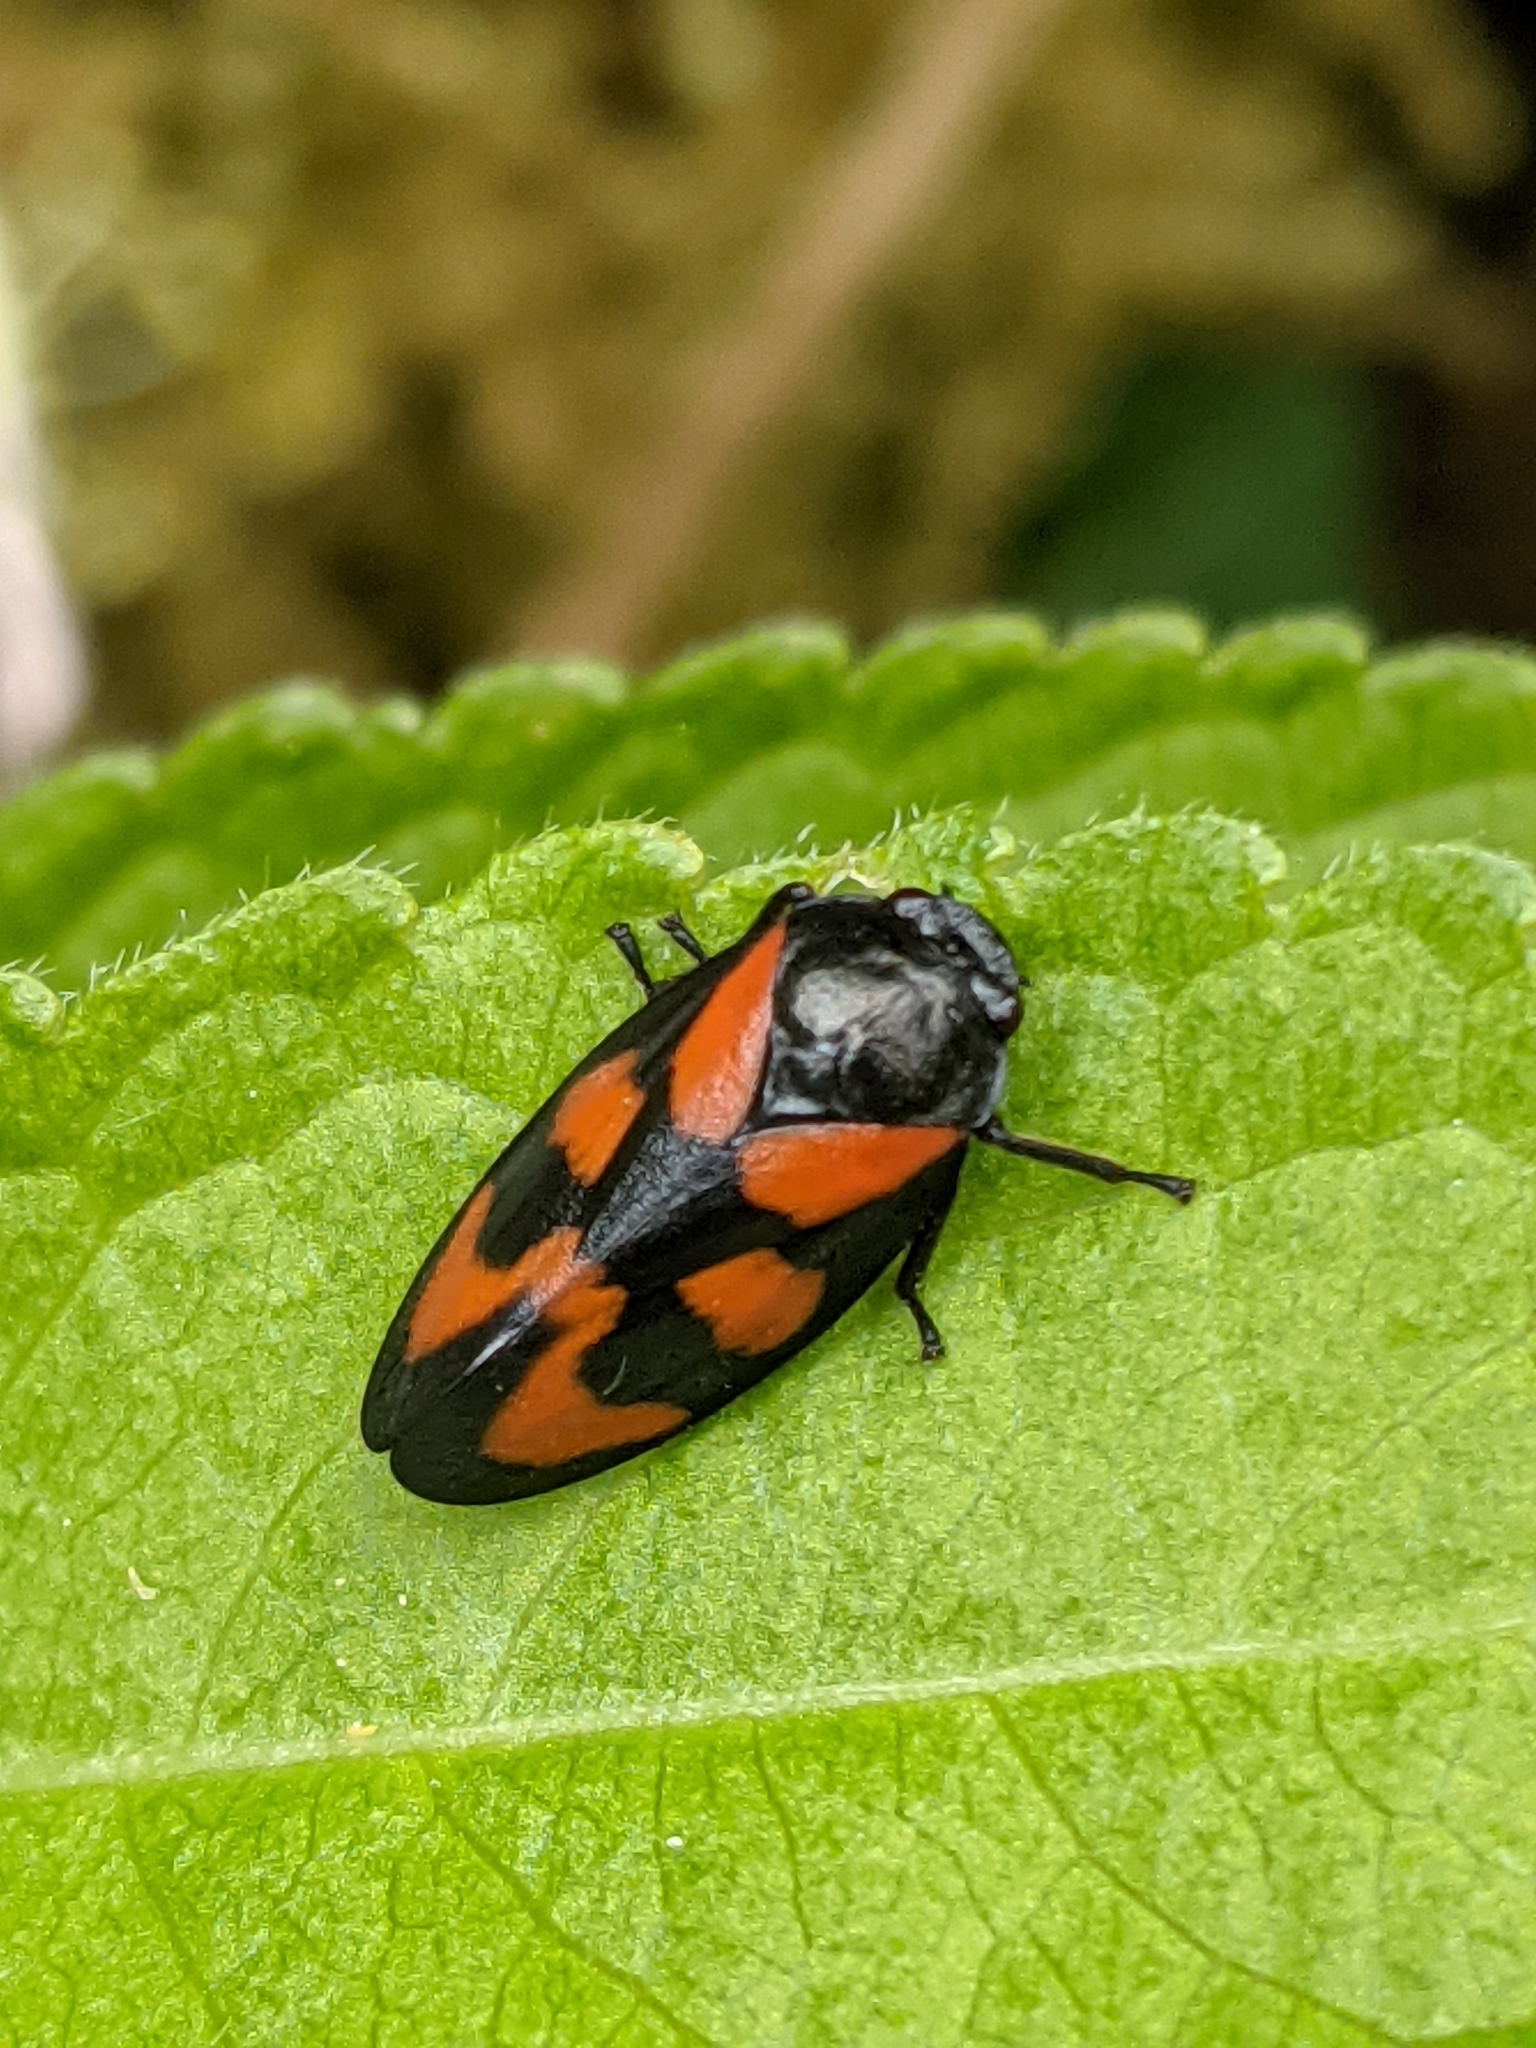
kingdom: Animalia
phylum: Arthropoda
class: Insecta
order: Hemiptera
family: Cercopidae
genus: Cercopis
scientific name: Cercopis vulnerata
